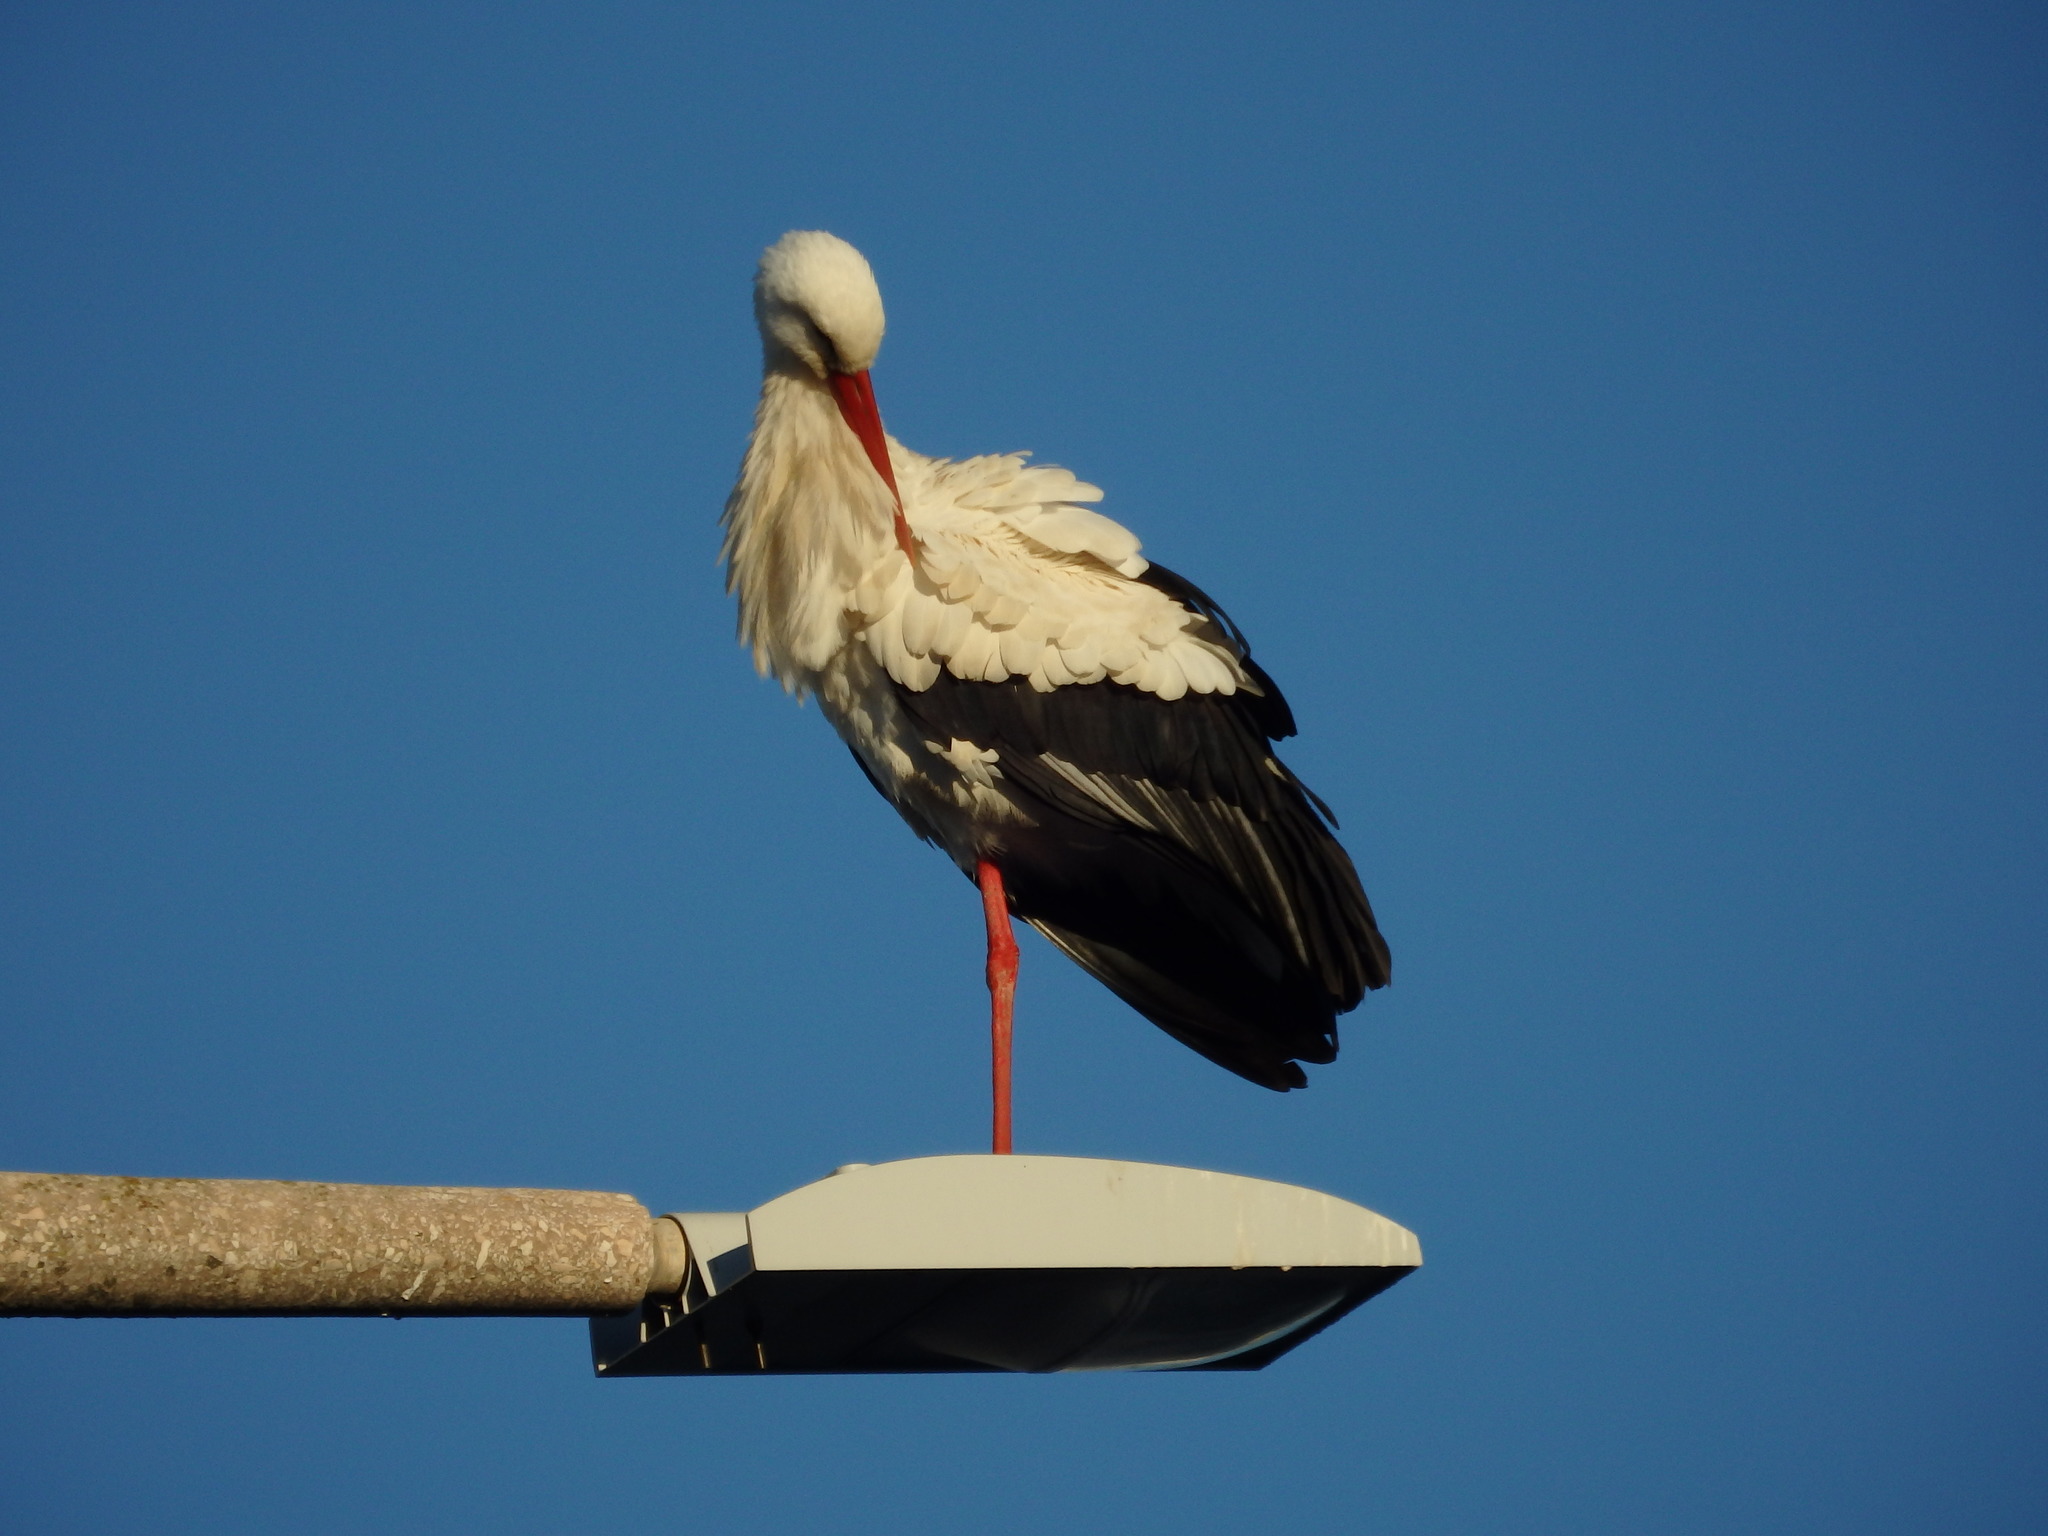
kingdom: Animalia
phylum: Chordata
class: Aves
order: Ciconiiformes
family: Ciconiidae
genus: Ciconia
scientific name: Ciconia ciconia
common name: White stork
